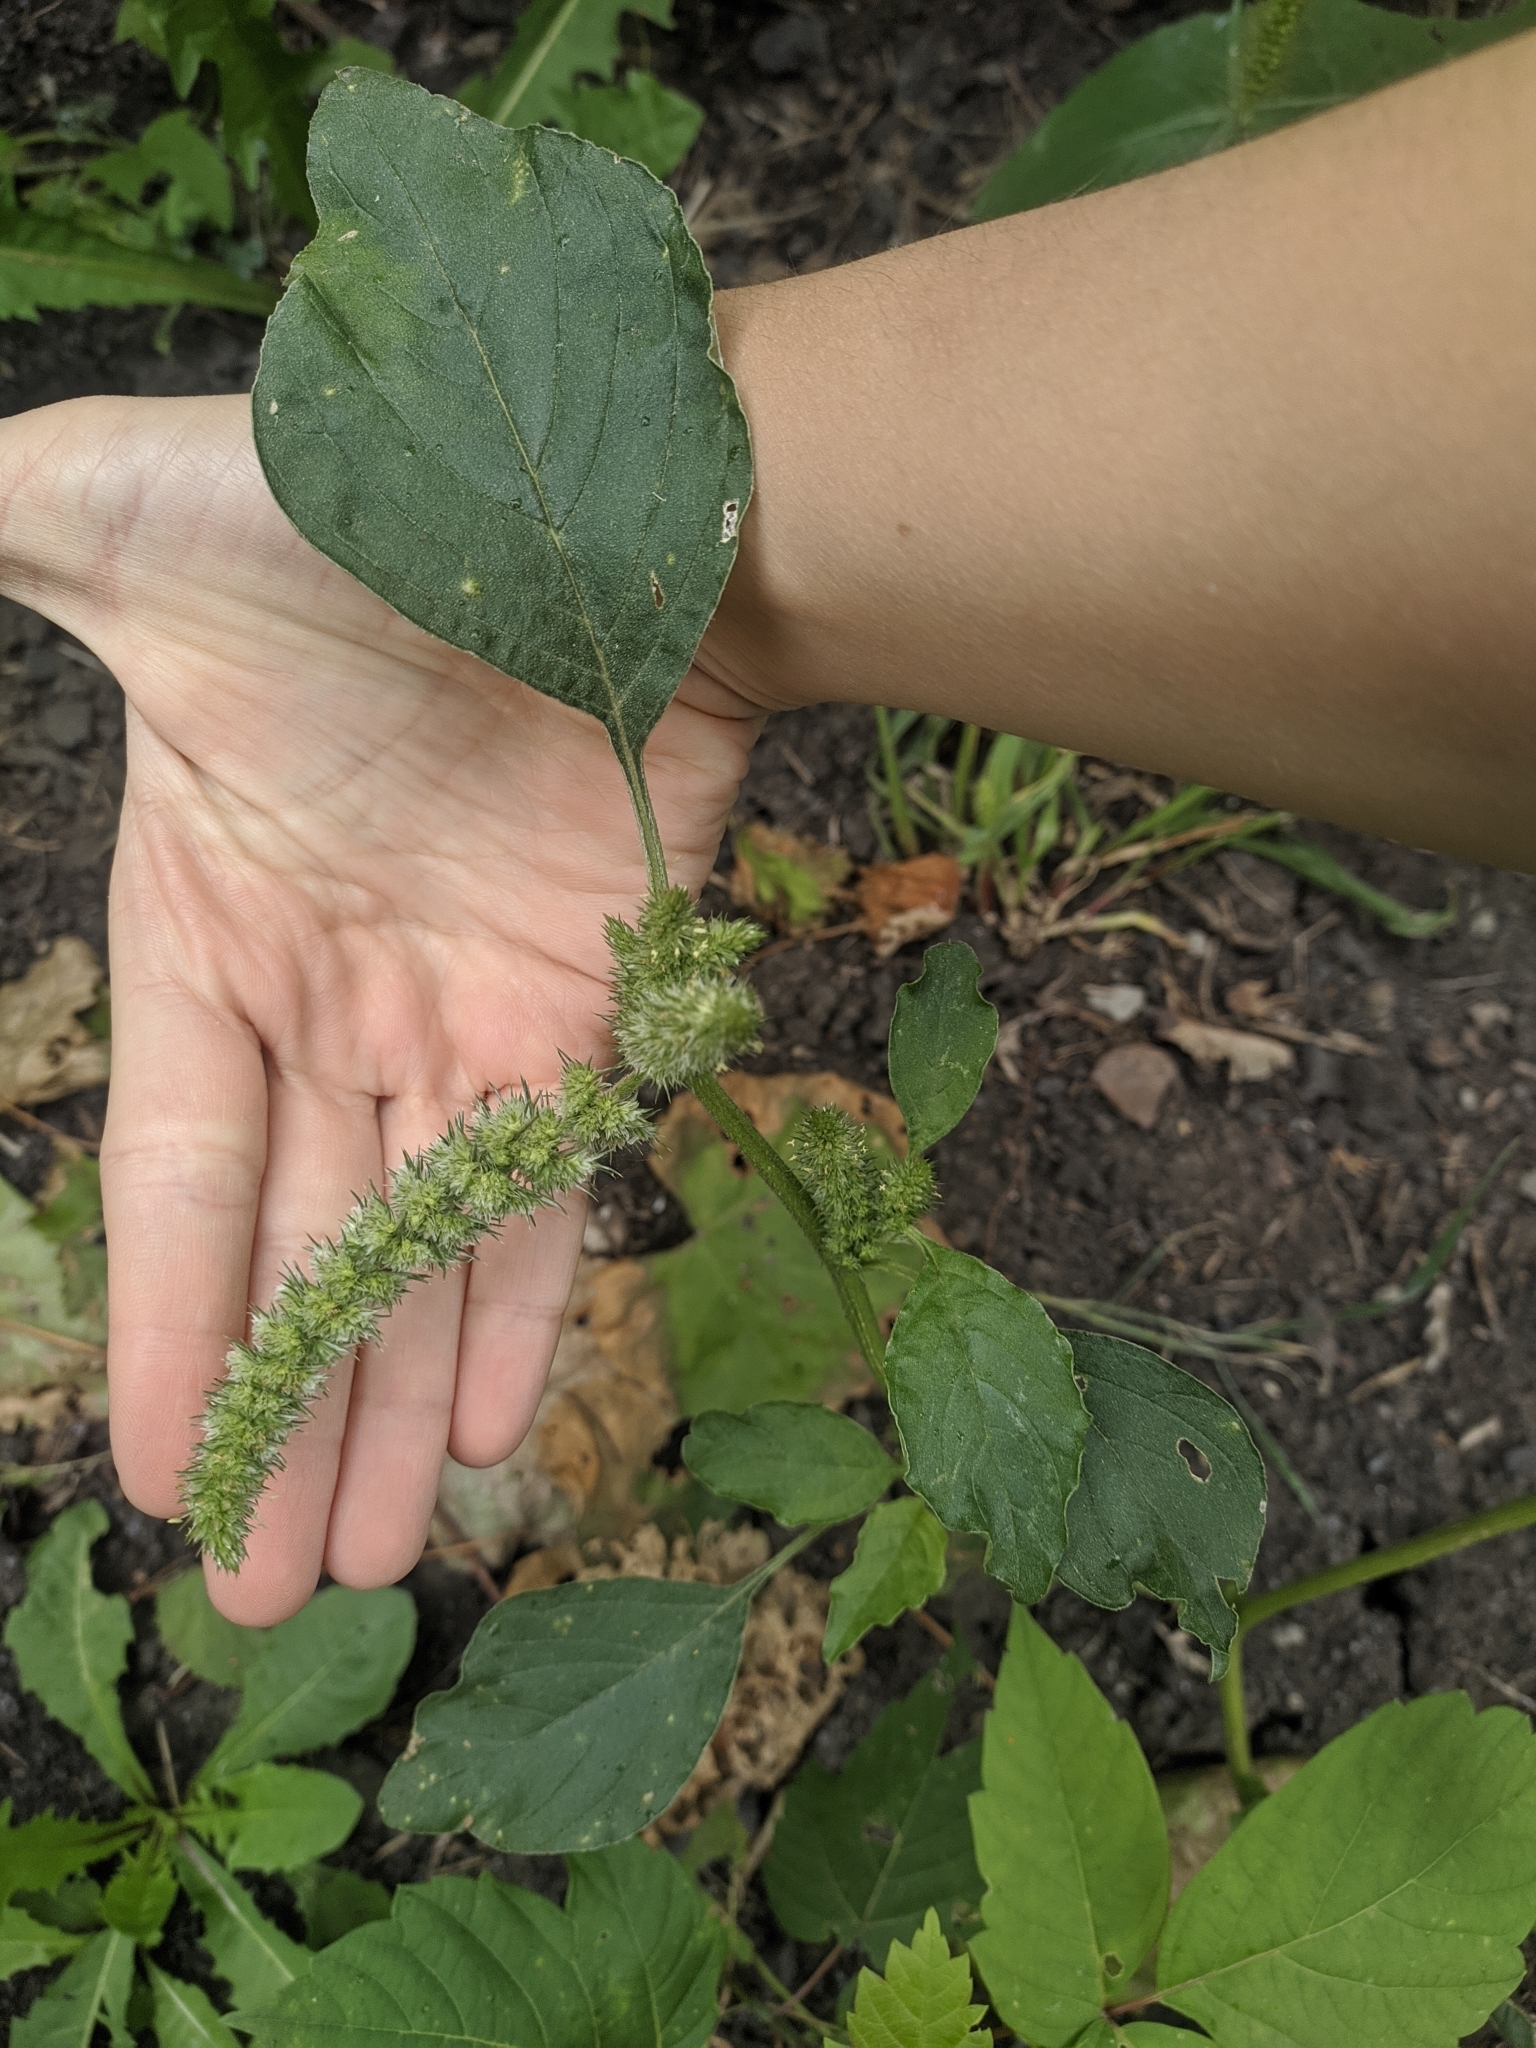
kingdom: Plantae
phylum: Tracheophyta
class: Magnoliopsida
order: Caryophyllales
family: Amaranthaceae
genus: Amaranthus
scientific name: Amaranthus retroflexus
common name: Redroot amaranth
